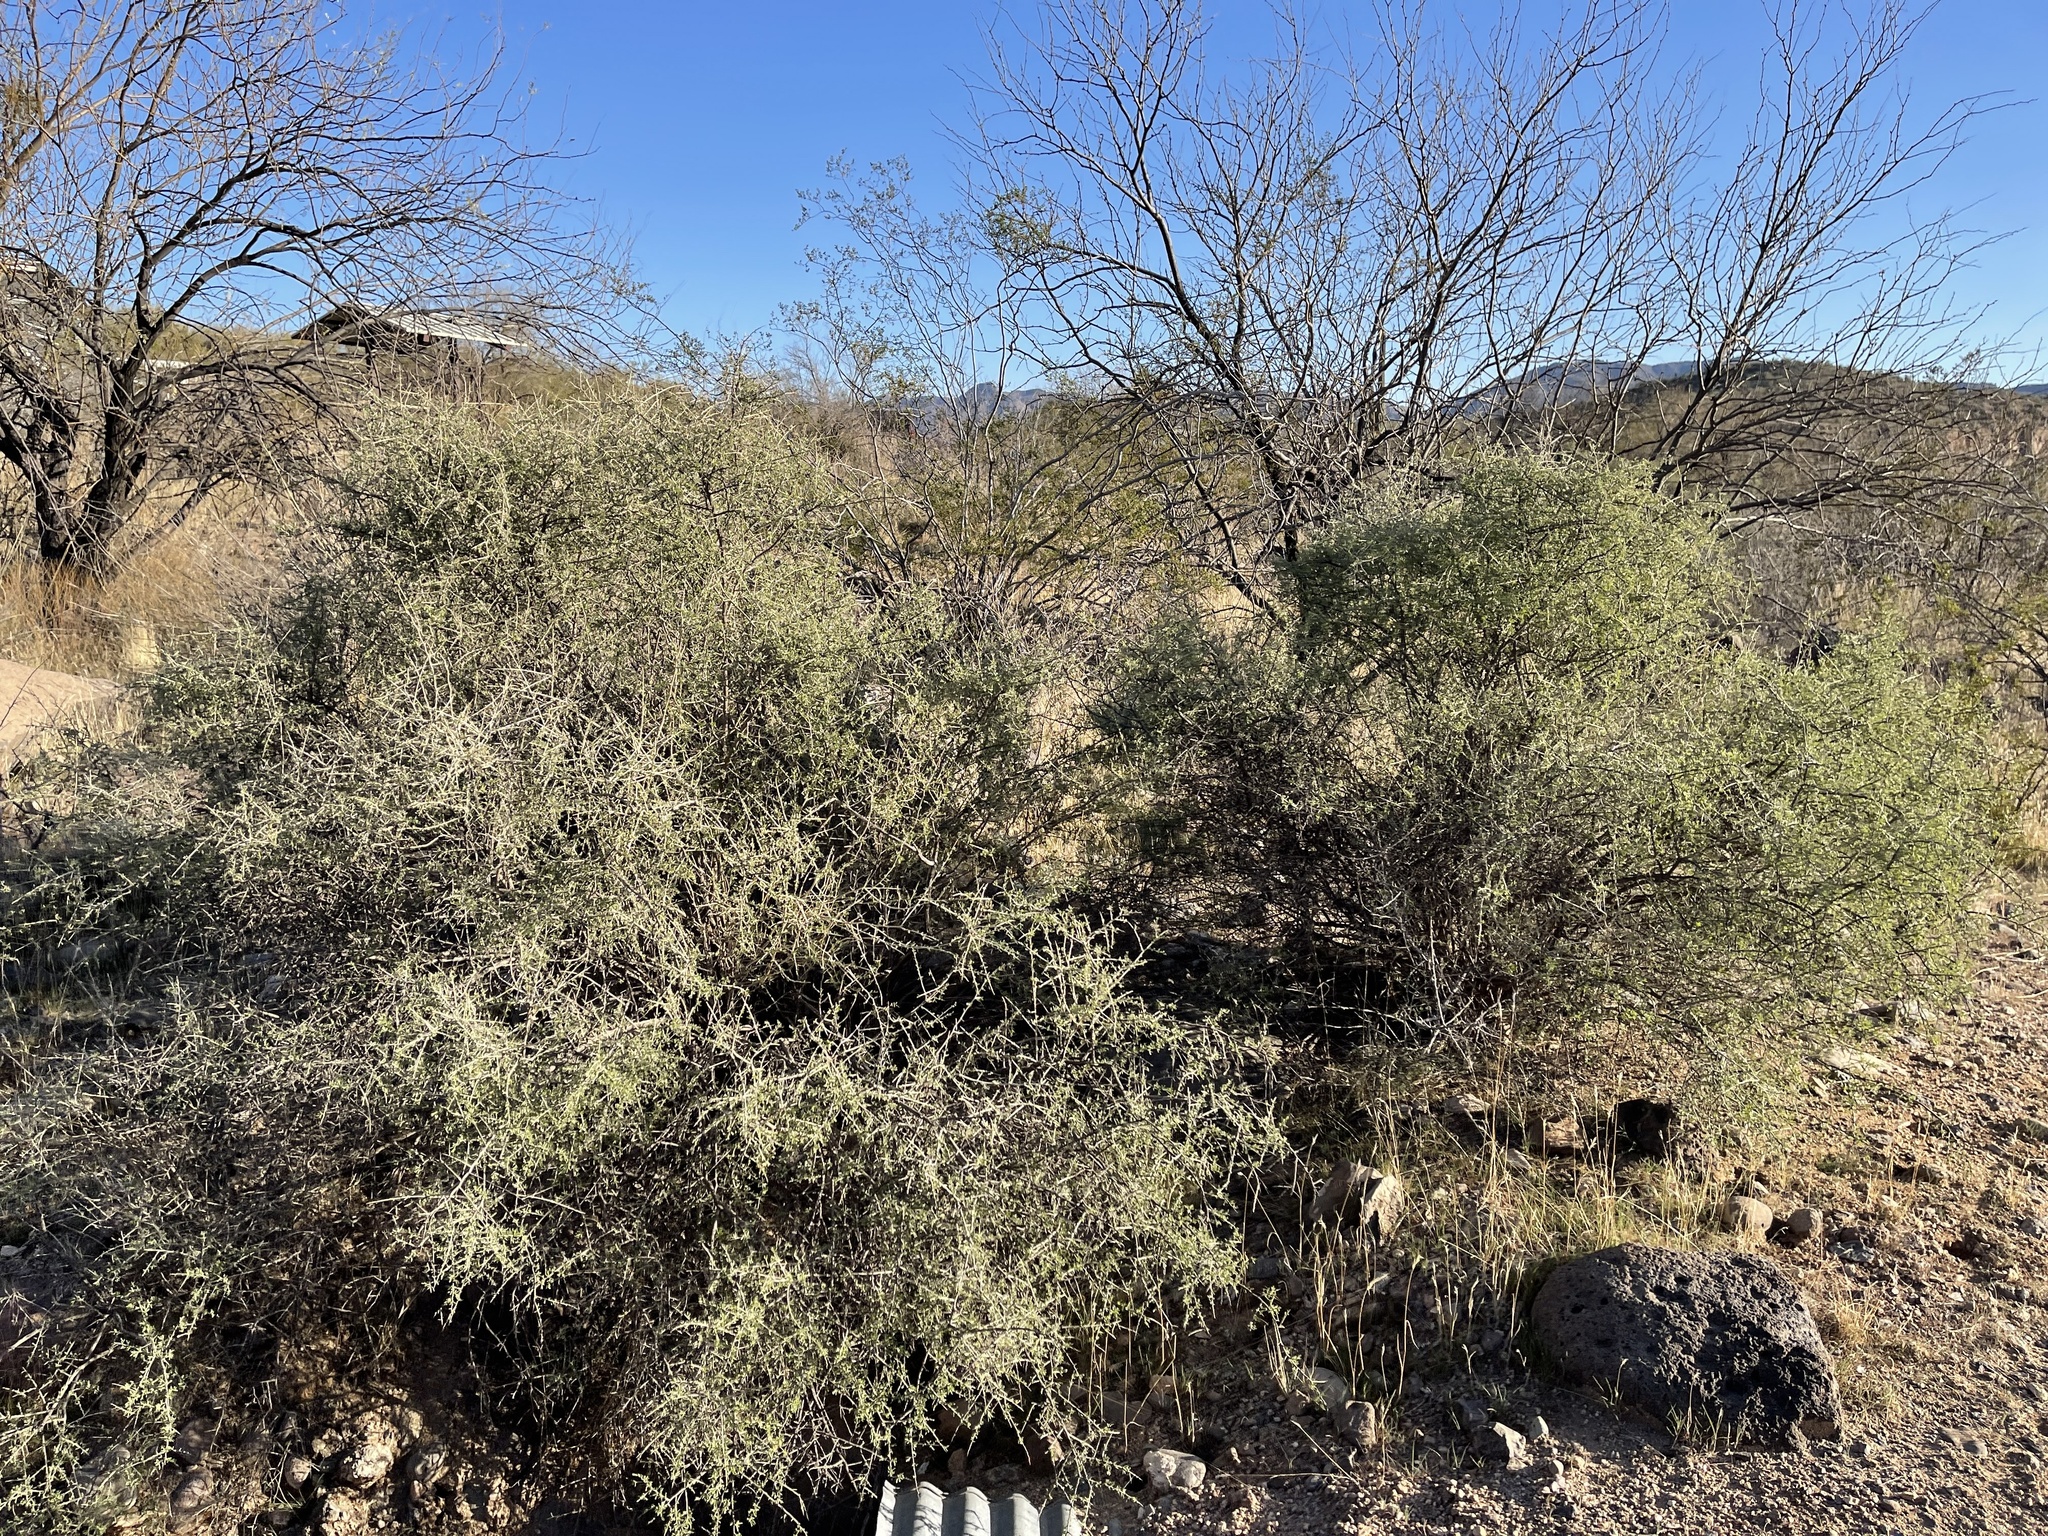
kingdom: Plantae
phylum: Tracheophyta
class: Magnoliopsida
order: Solanales
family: Solanaceae
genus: Lycium
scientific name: Lycium andersonii
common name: Water-jacket
